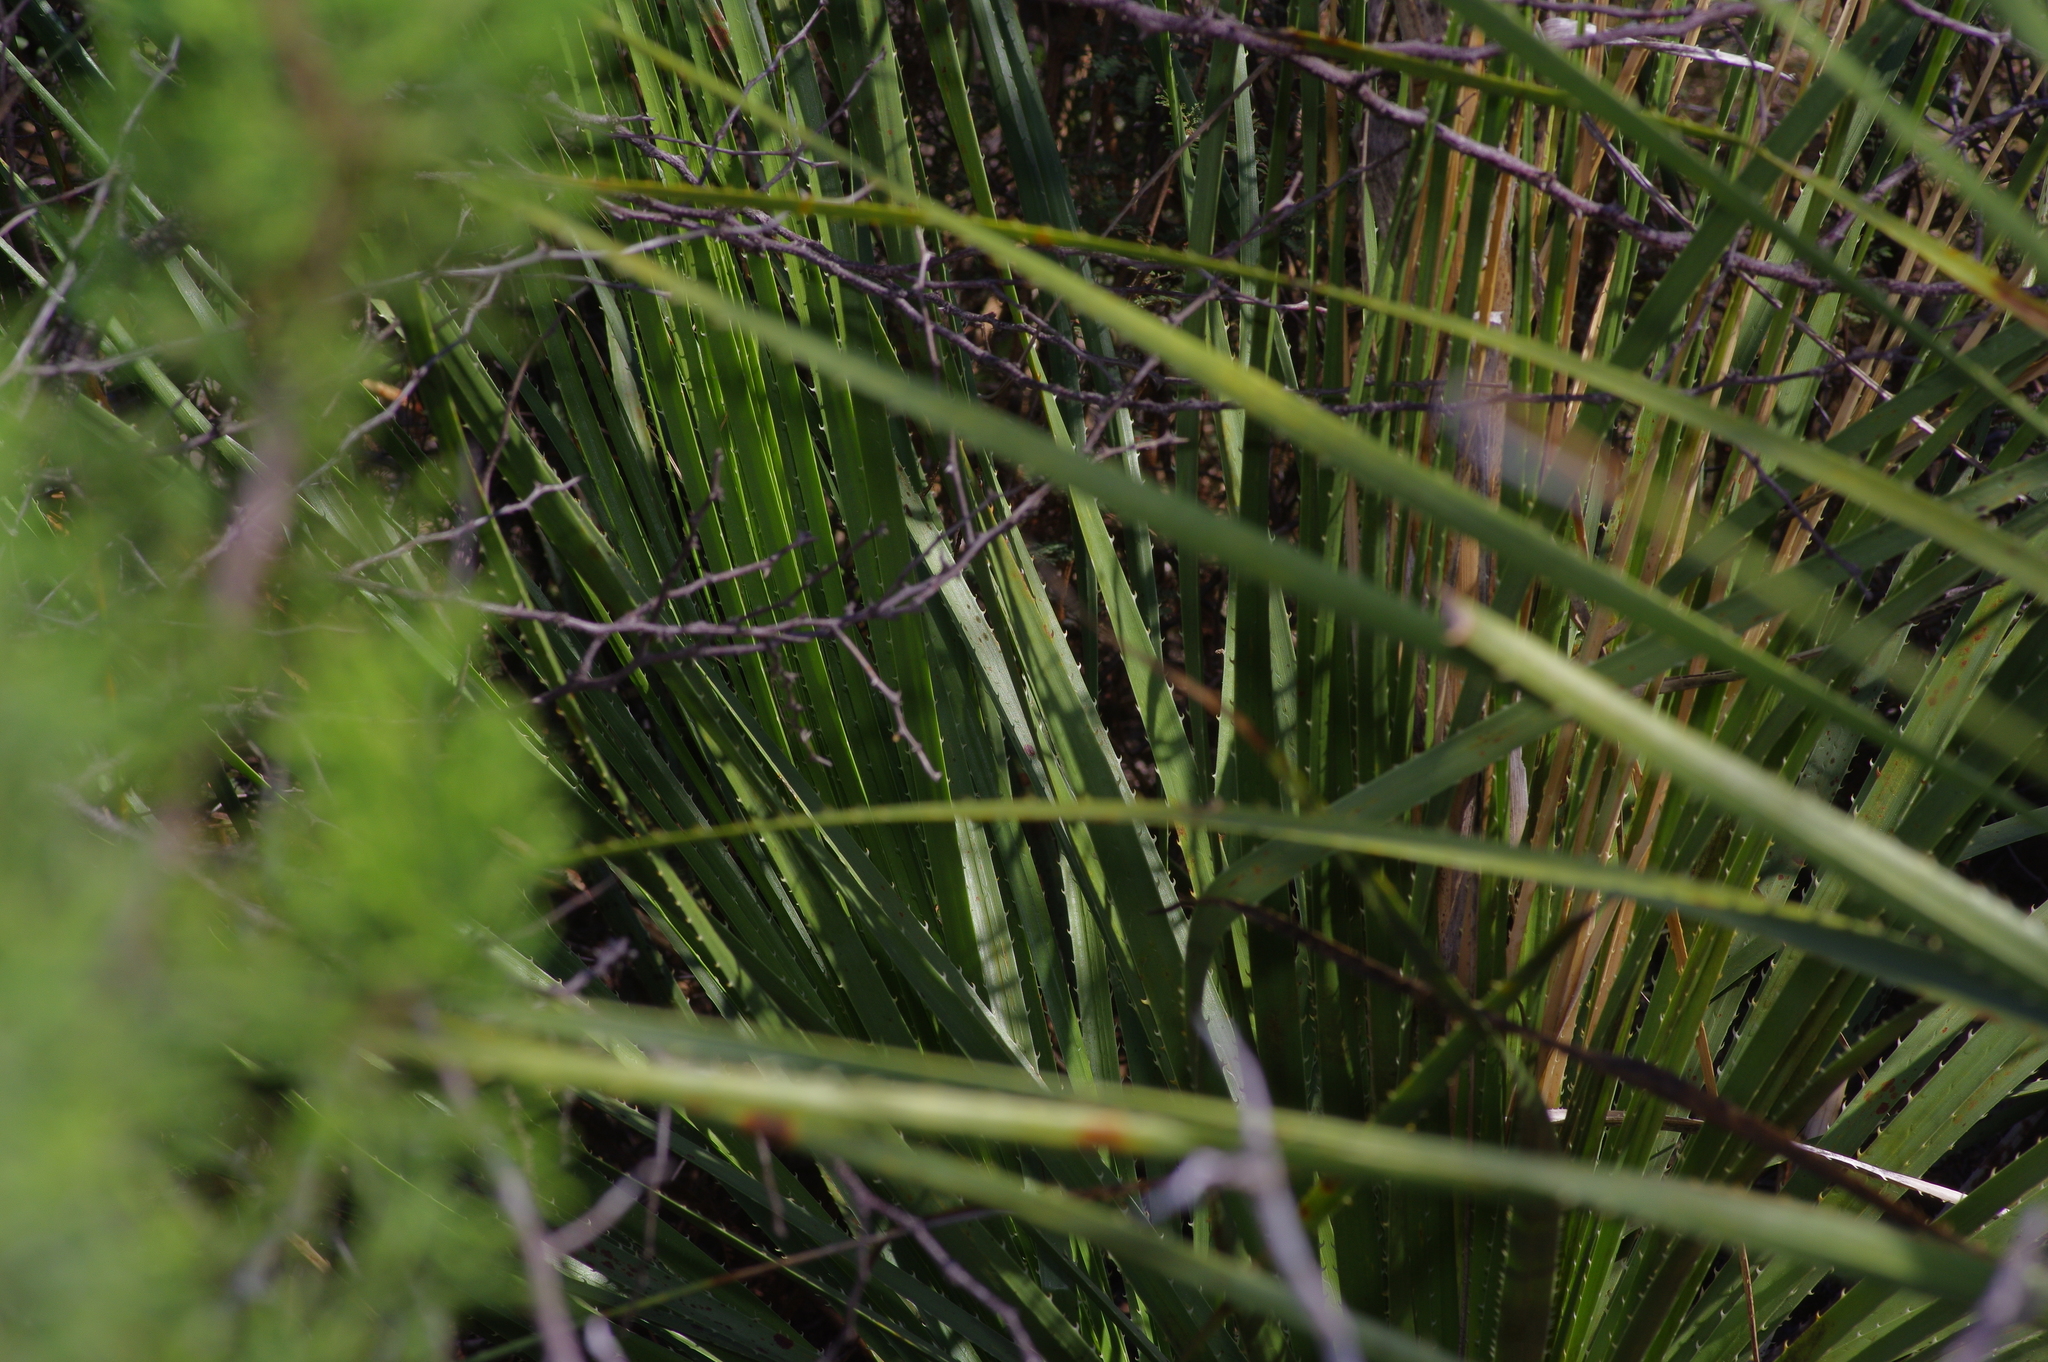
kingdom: Plantae
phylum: Tracheophyta
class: Liliopsida
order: Asparagales
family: Asparagaceae
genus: Dasylirion
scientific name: Dasylirion texanum
